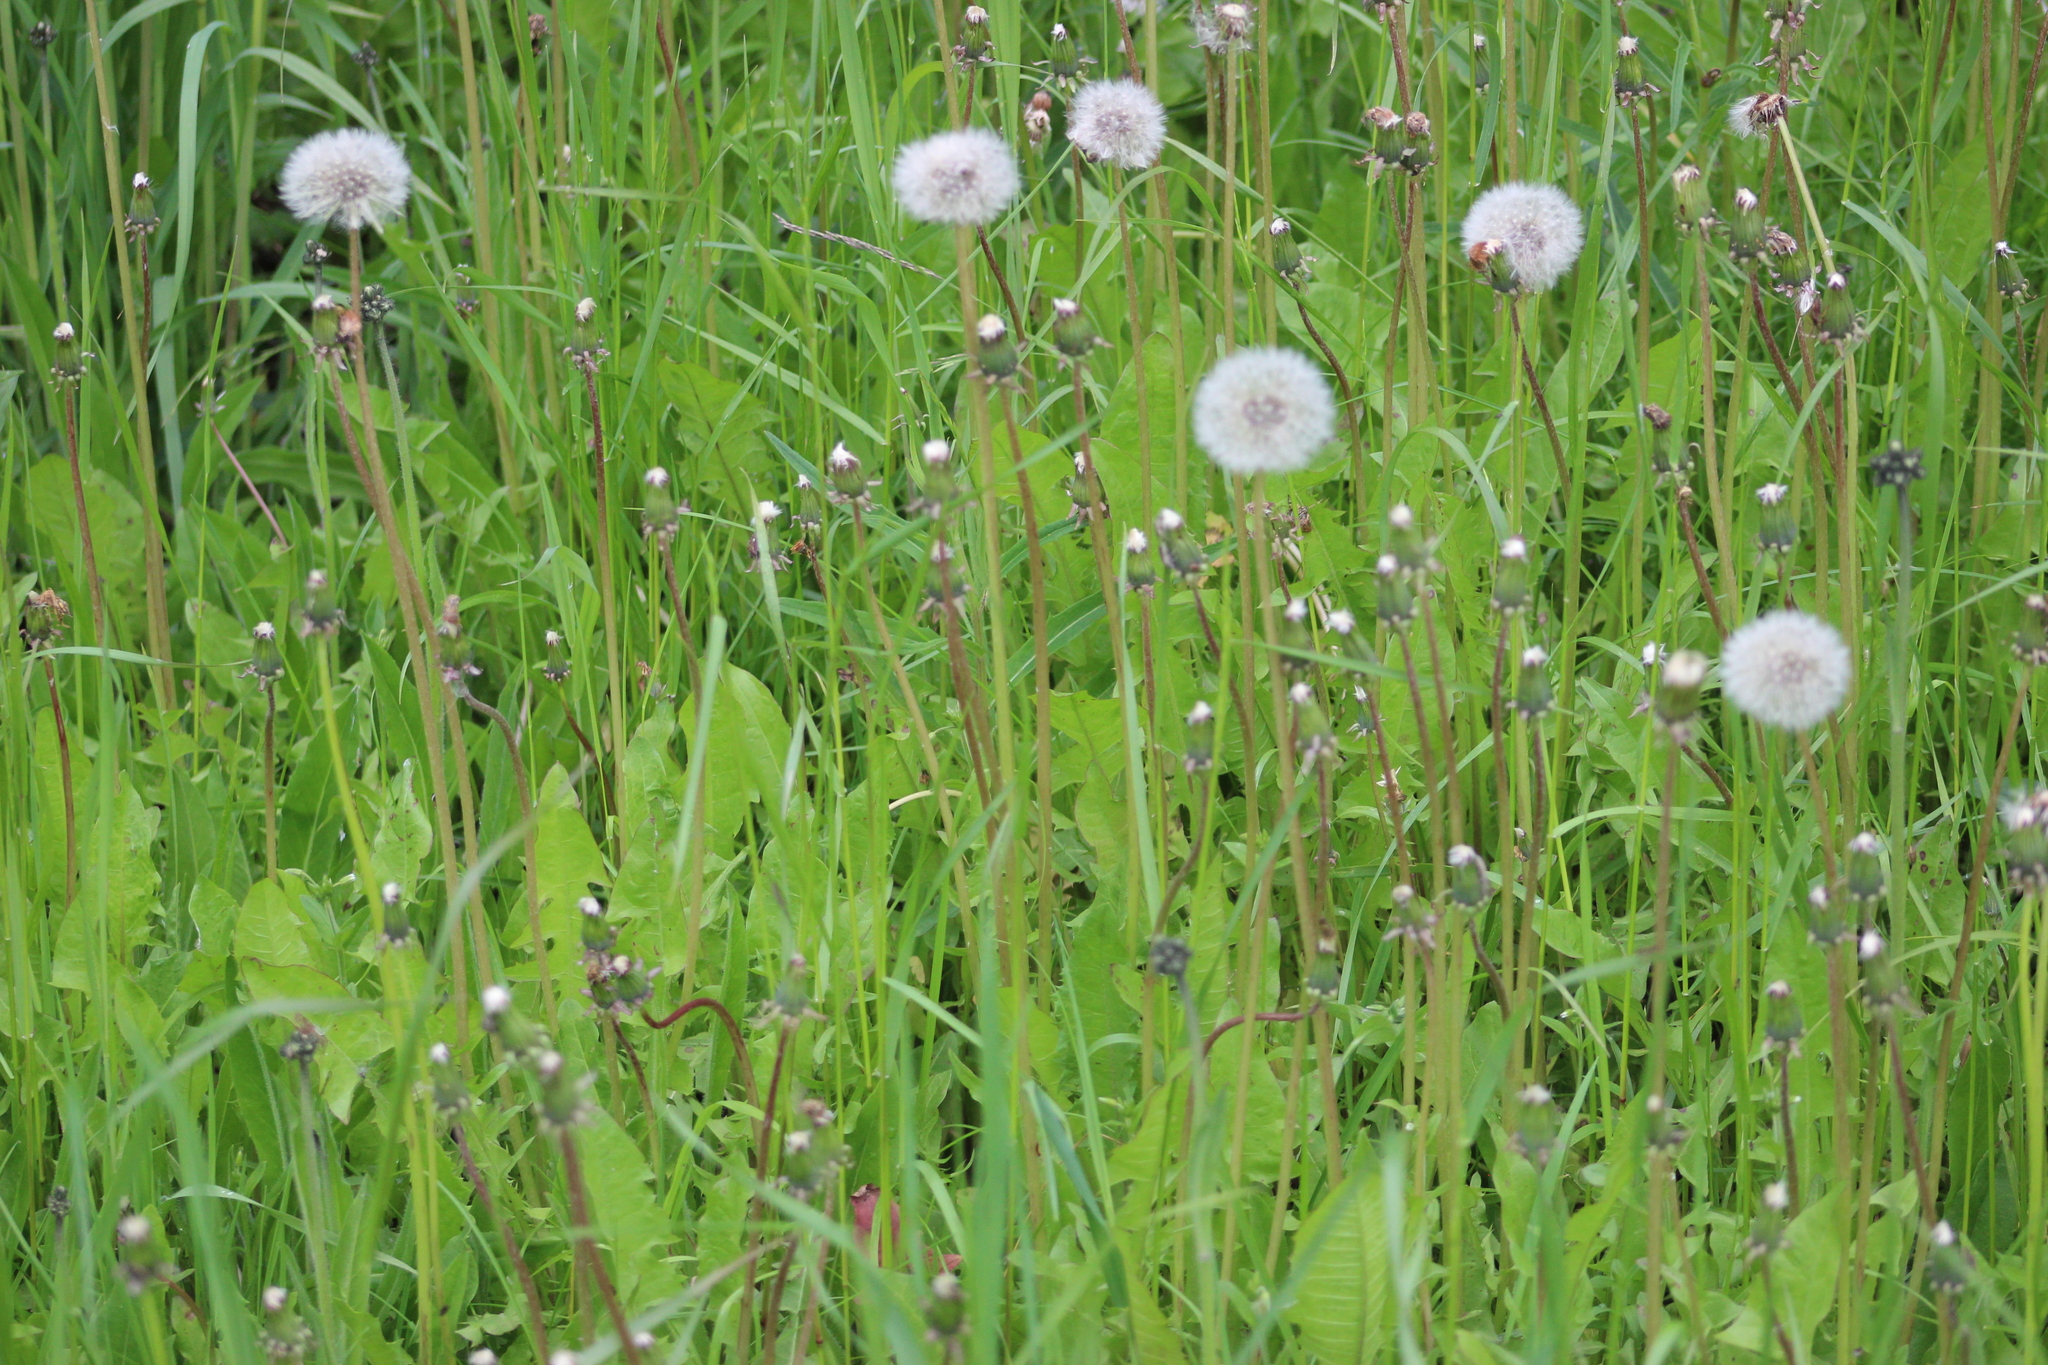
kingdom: Plantae
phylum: Tracheophyta
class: Magnoliopsida
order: Asterales
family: Asteraceae
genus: Taraxacum
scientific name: Taraxacum officinale
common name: Common dandelion
